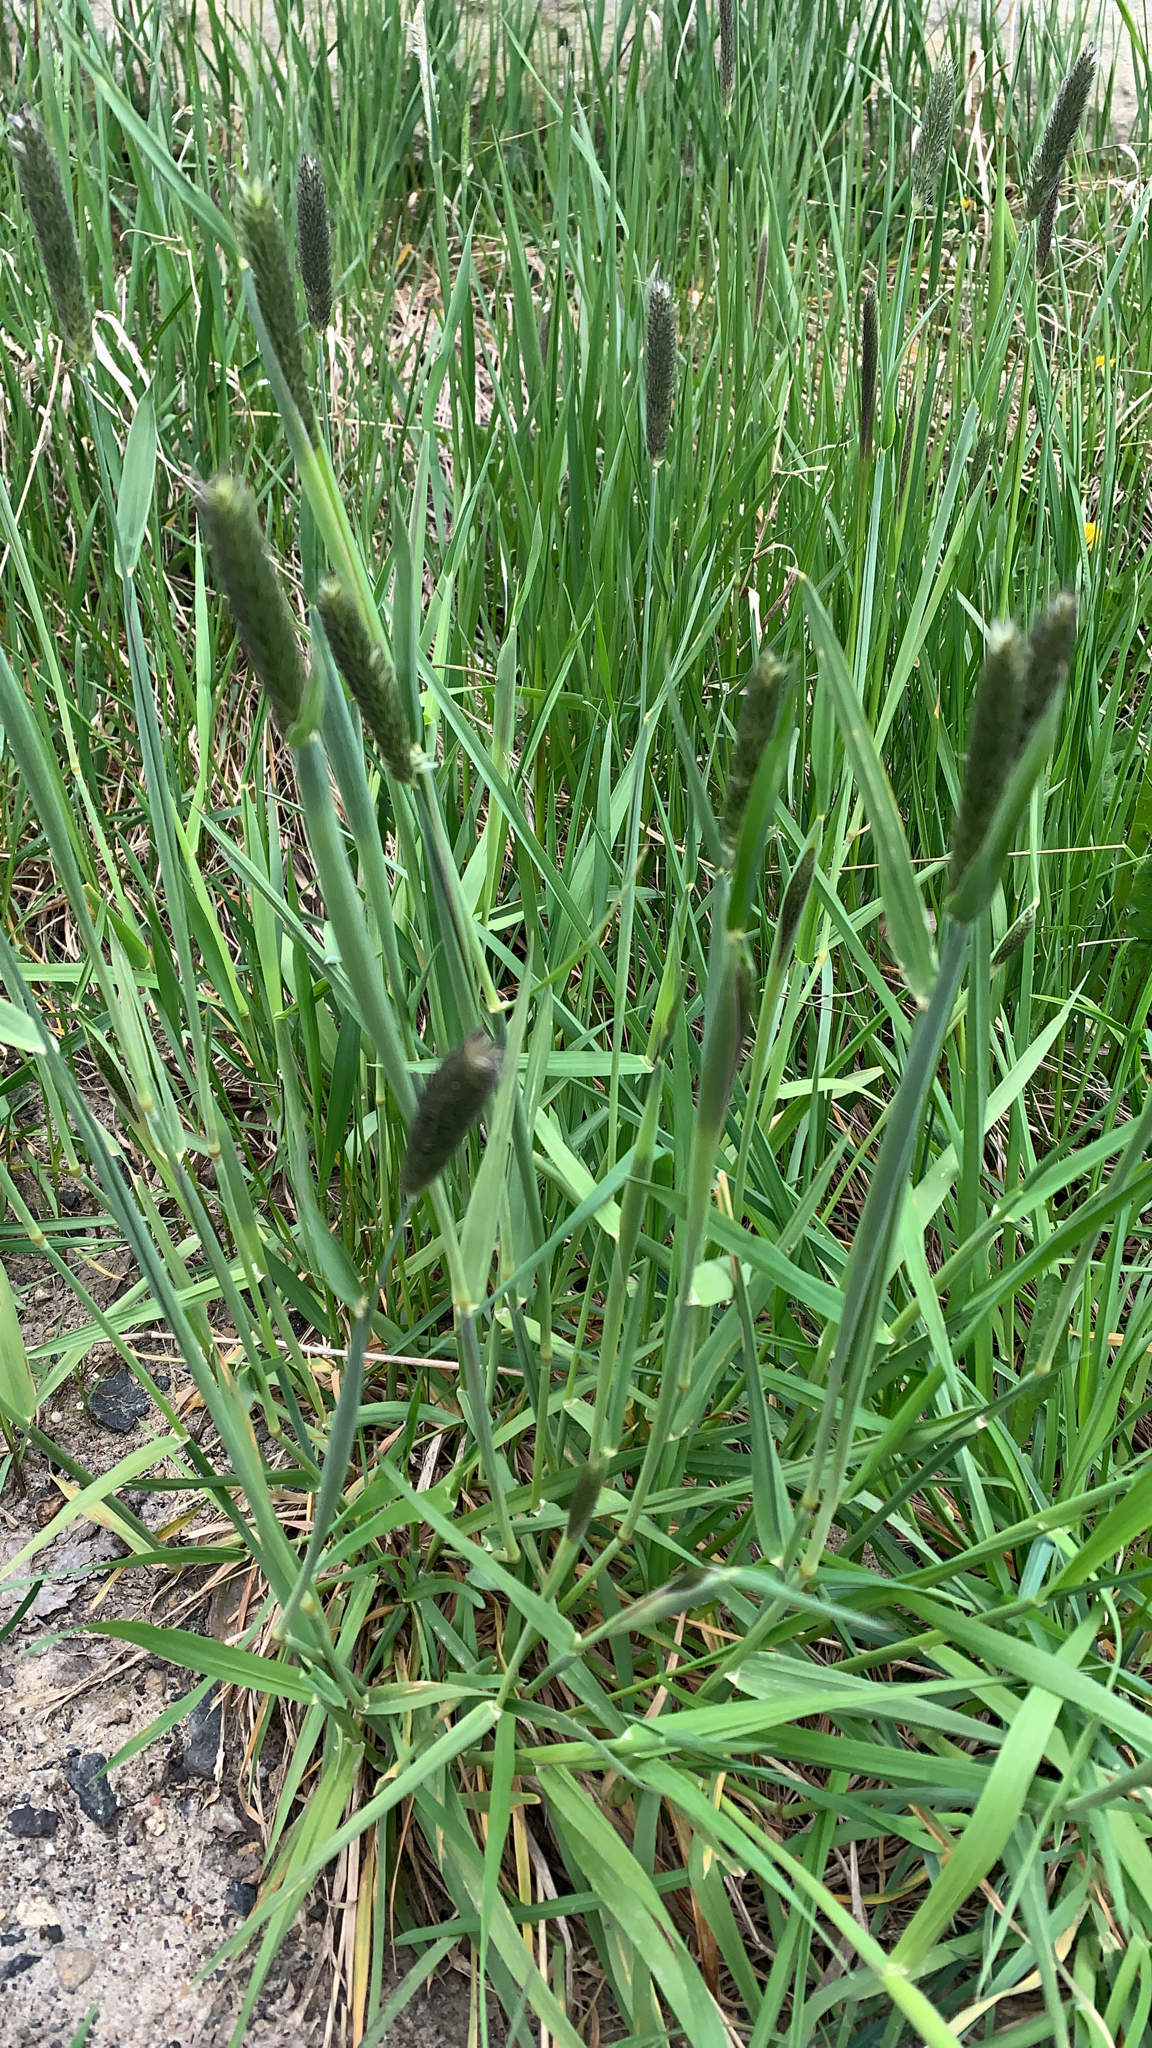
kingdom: Plantae
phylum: Tracheophyta
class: Liliopsida
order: Poales
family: Poaceae
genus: Alopecurus
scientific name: Alopecurus pratensis
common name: Meadow foxtail
